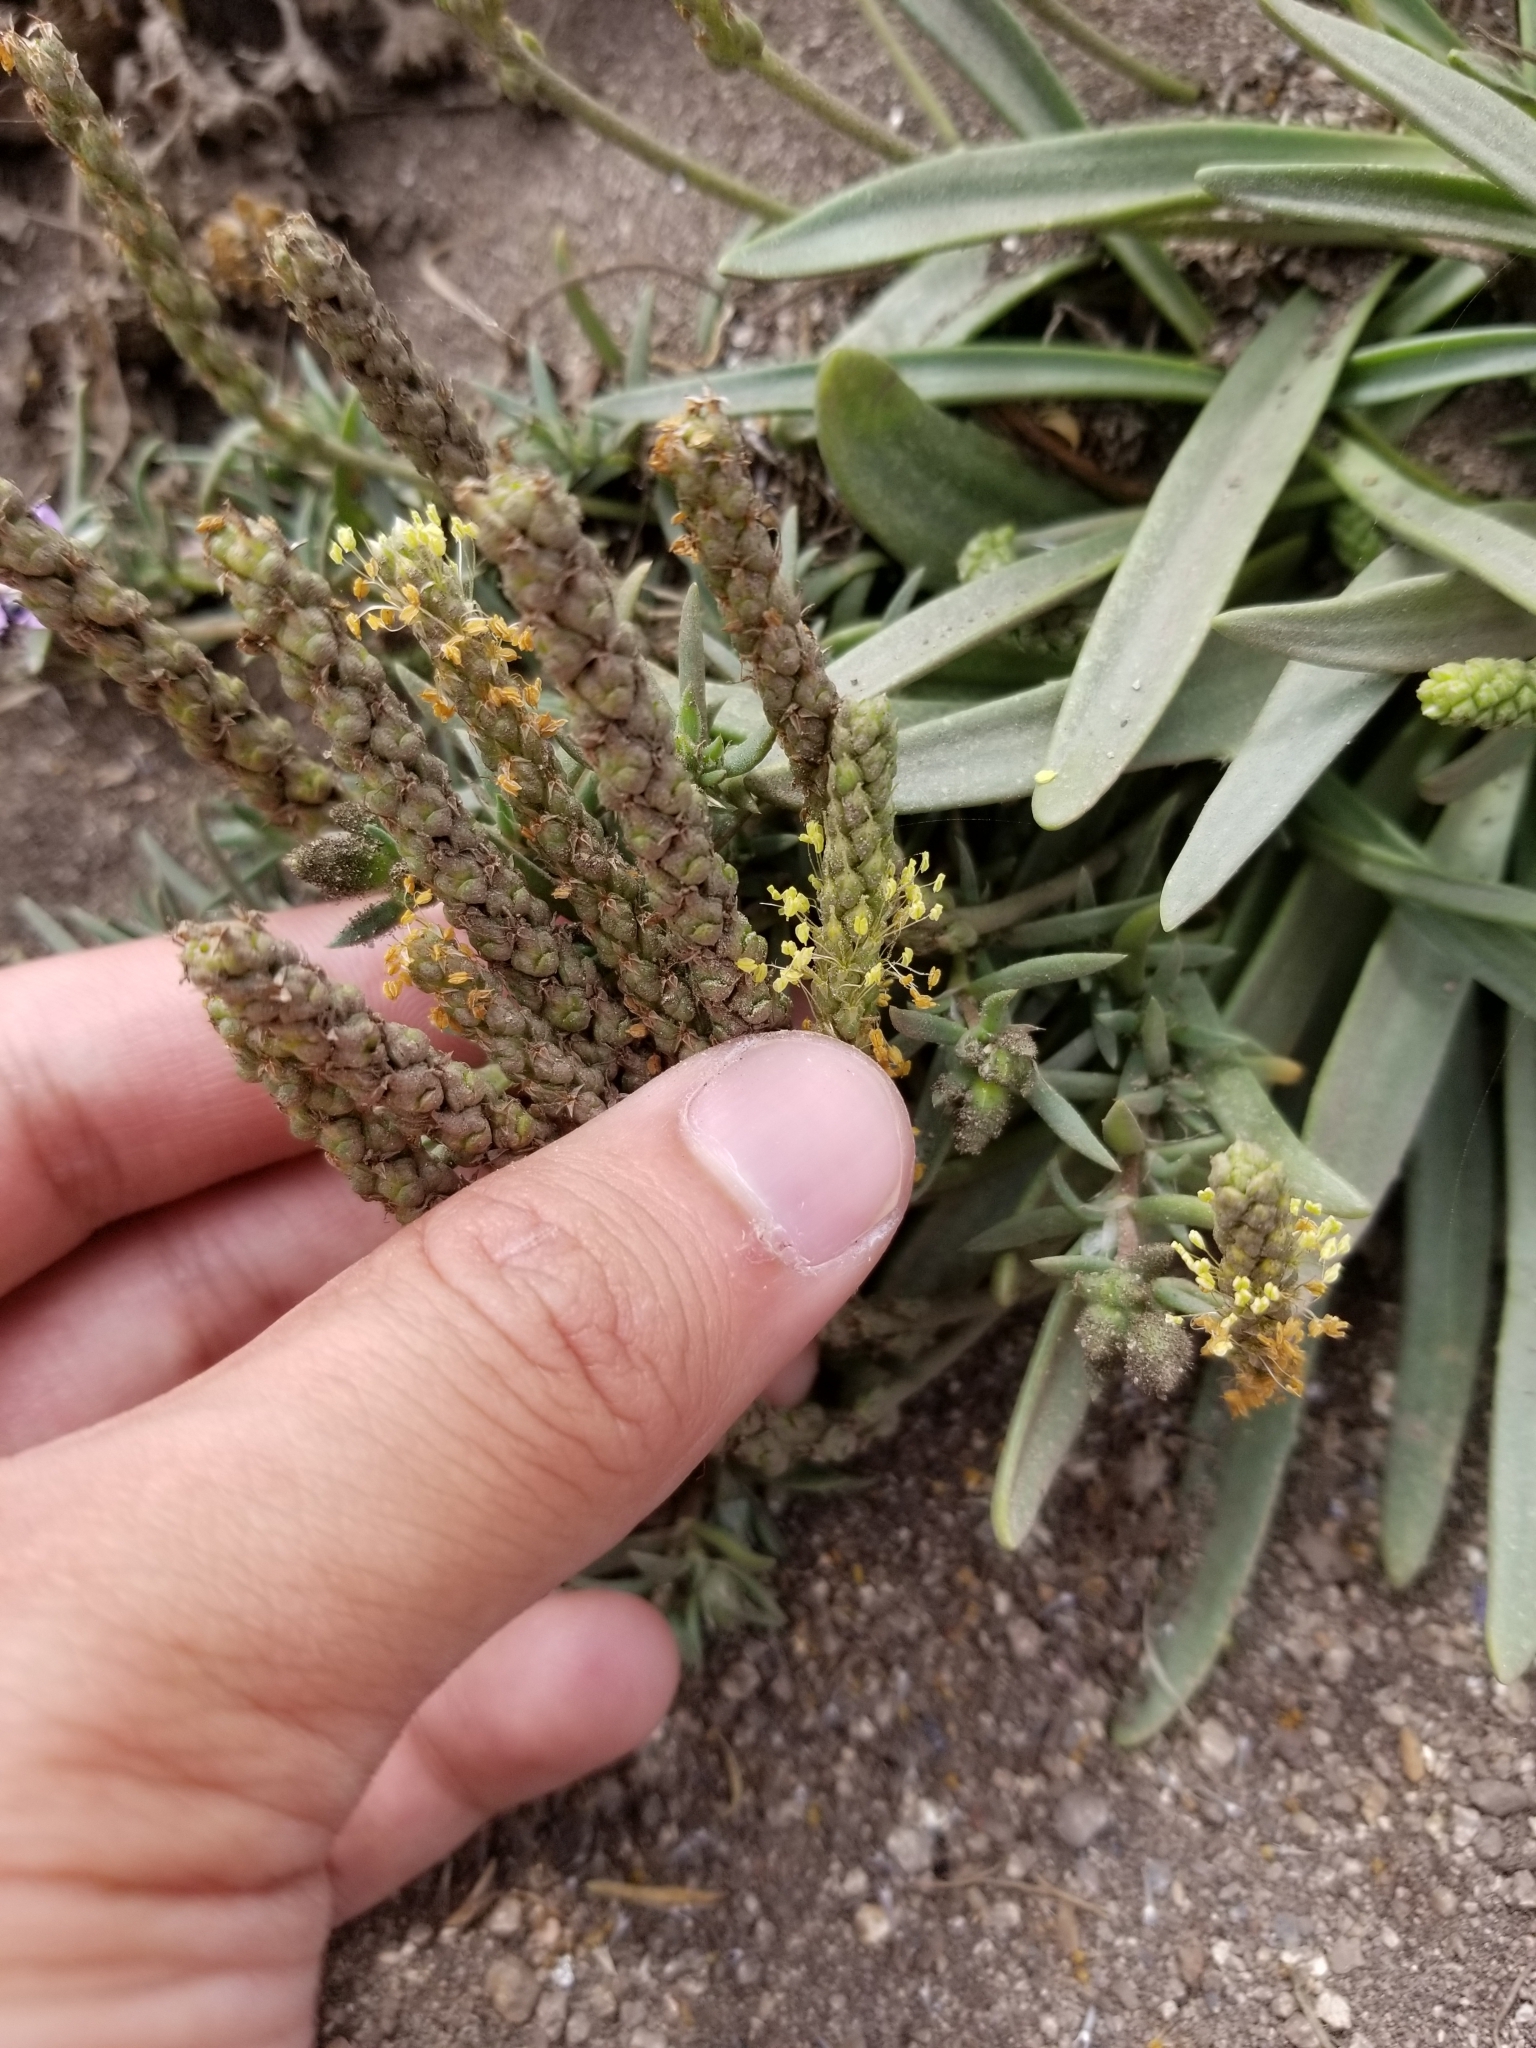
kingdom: Plantae
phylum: Tracheophyta
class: Magnoliopsida
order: Lamiales
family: Plantaginaceae
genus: Plantago
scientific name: Plantago maritima
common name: Sea plantain
